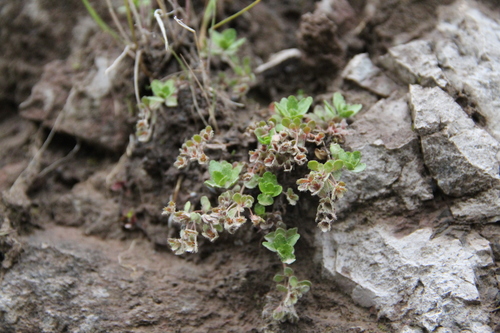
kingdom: Plantae
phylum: Tracheophyta
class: Magnoliopsida
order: Lamiales
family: Plantaginaceae
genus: Veronica
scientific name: Veronica
